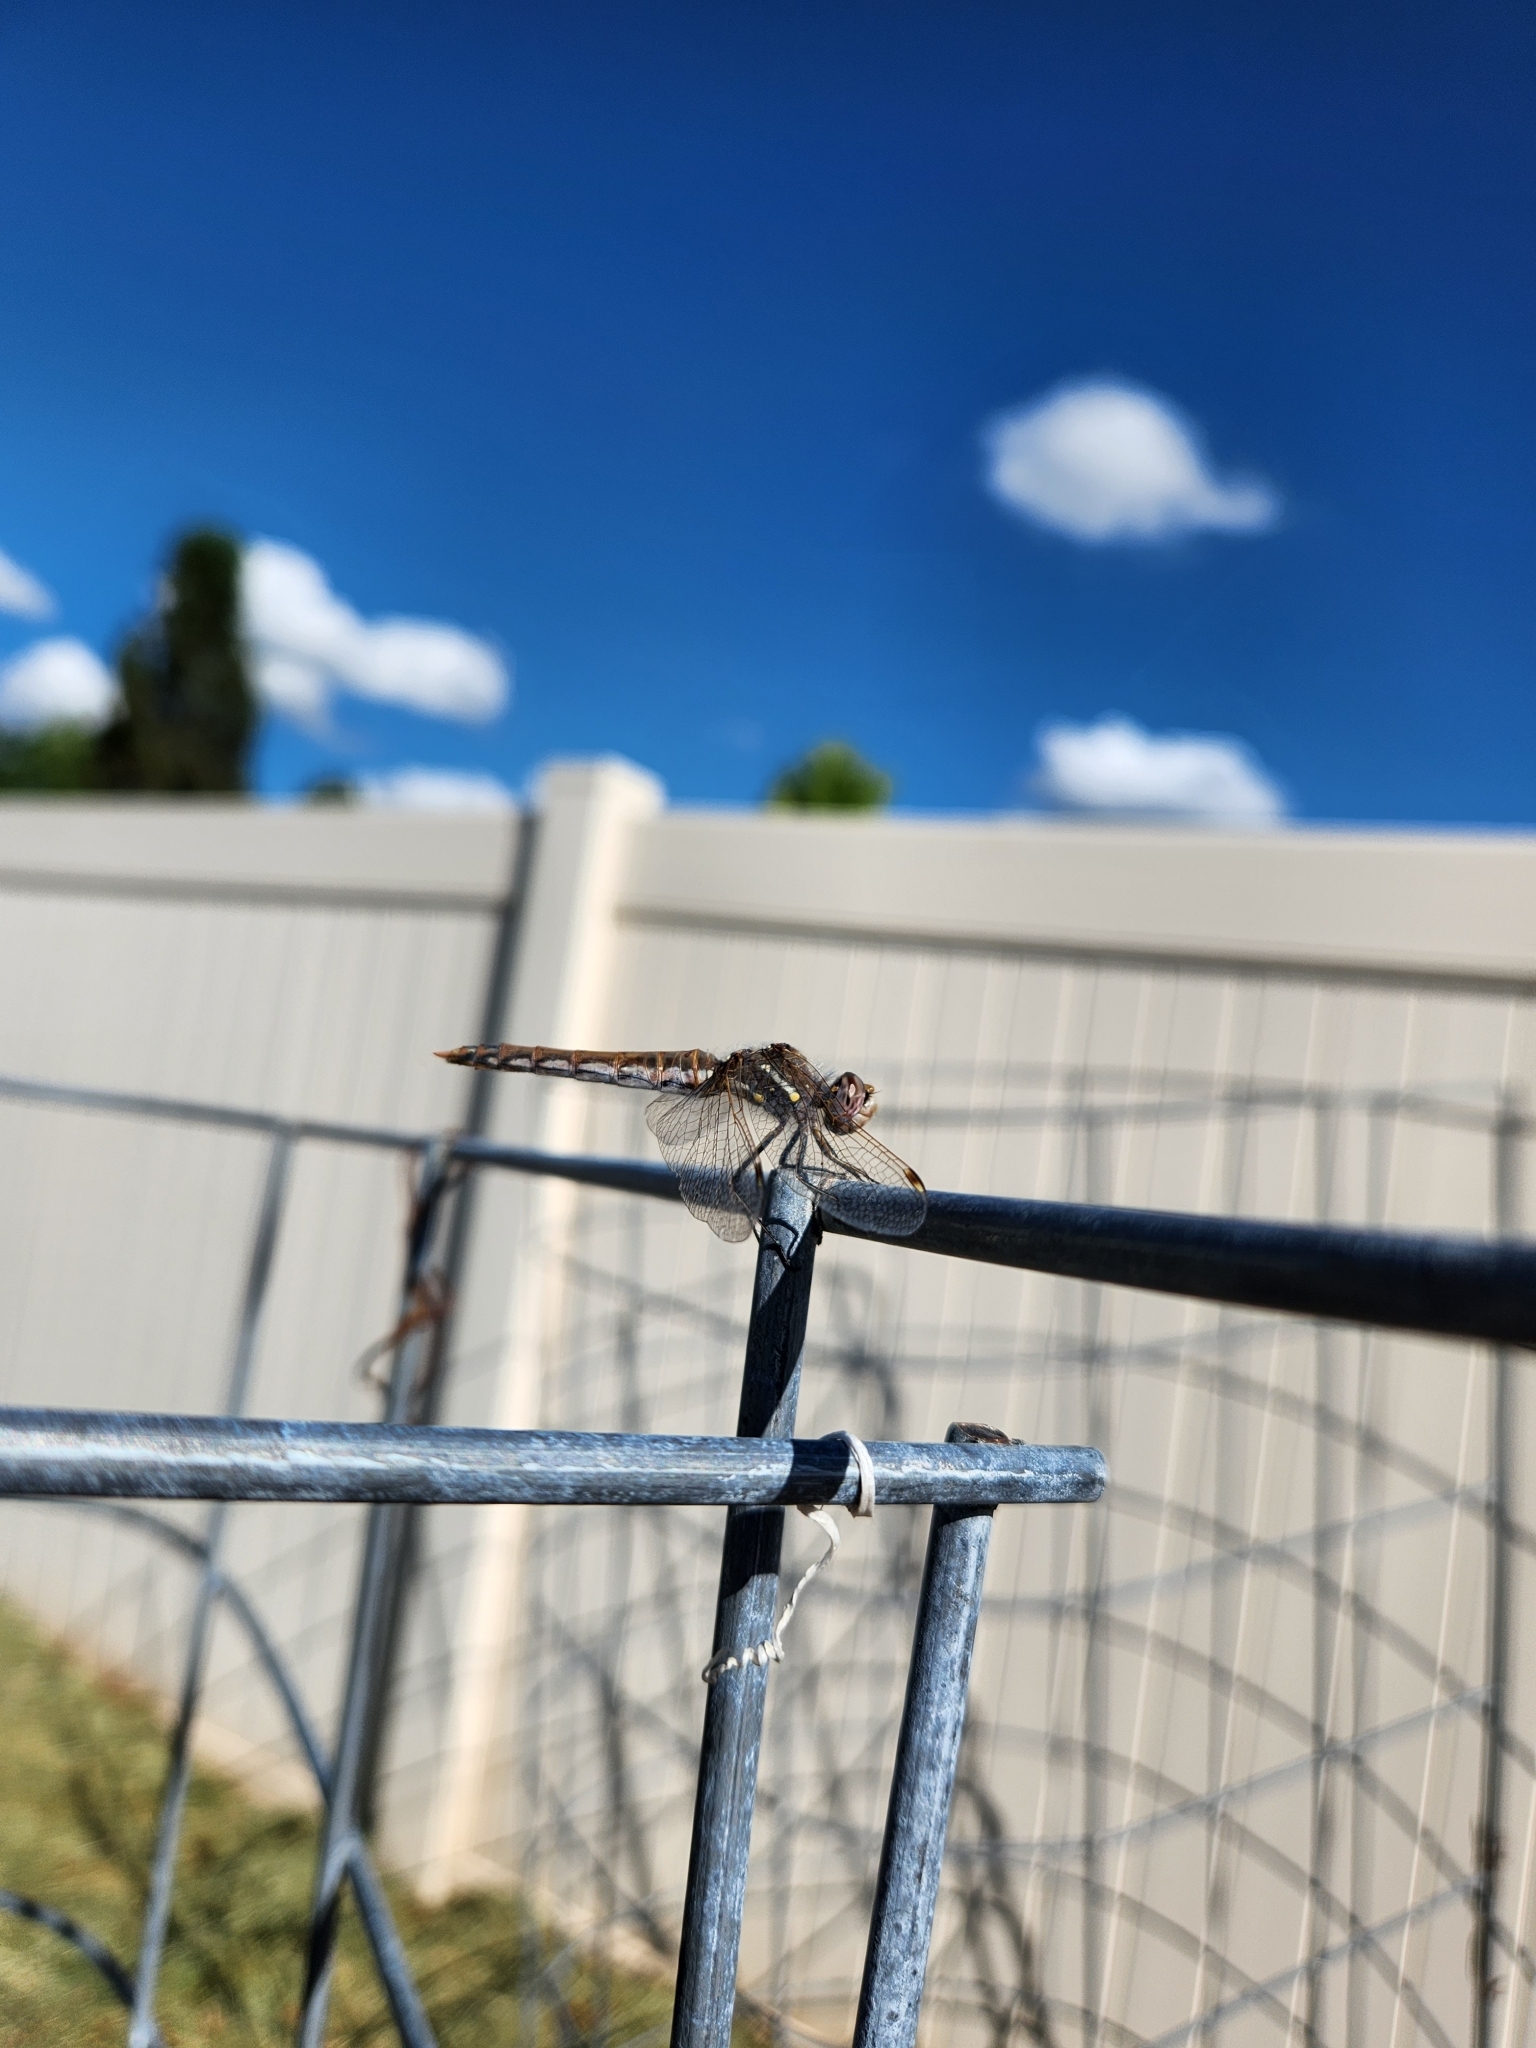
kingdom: Animalia
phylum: Arthropoda
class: Insecta
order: Odonata
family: Libellulidae
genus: Sympetrum
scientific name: Sympetrum corruptum
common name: Variegated meadowhawk
